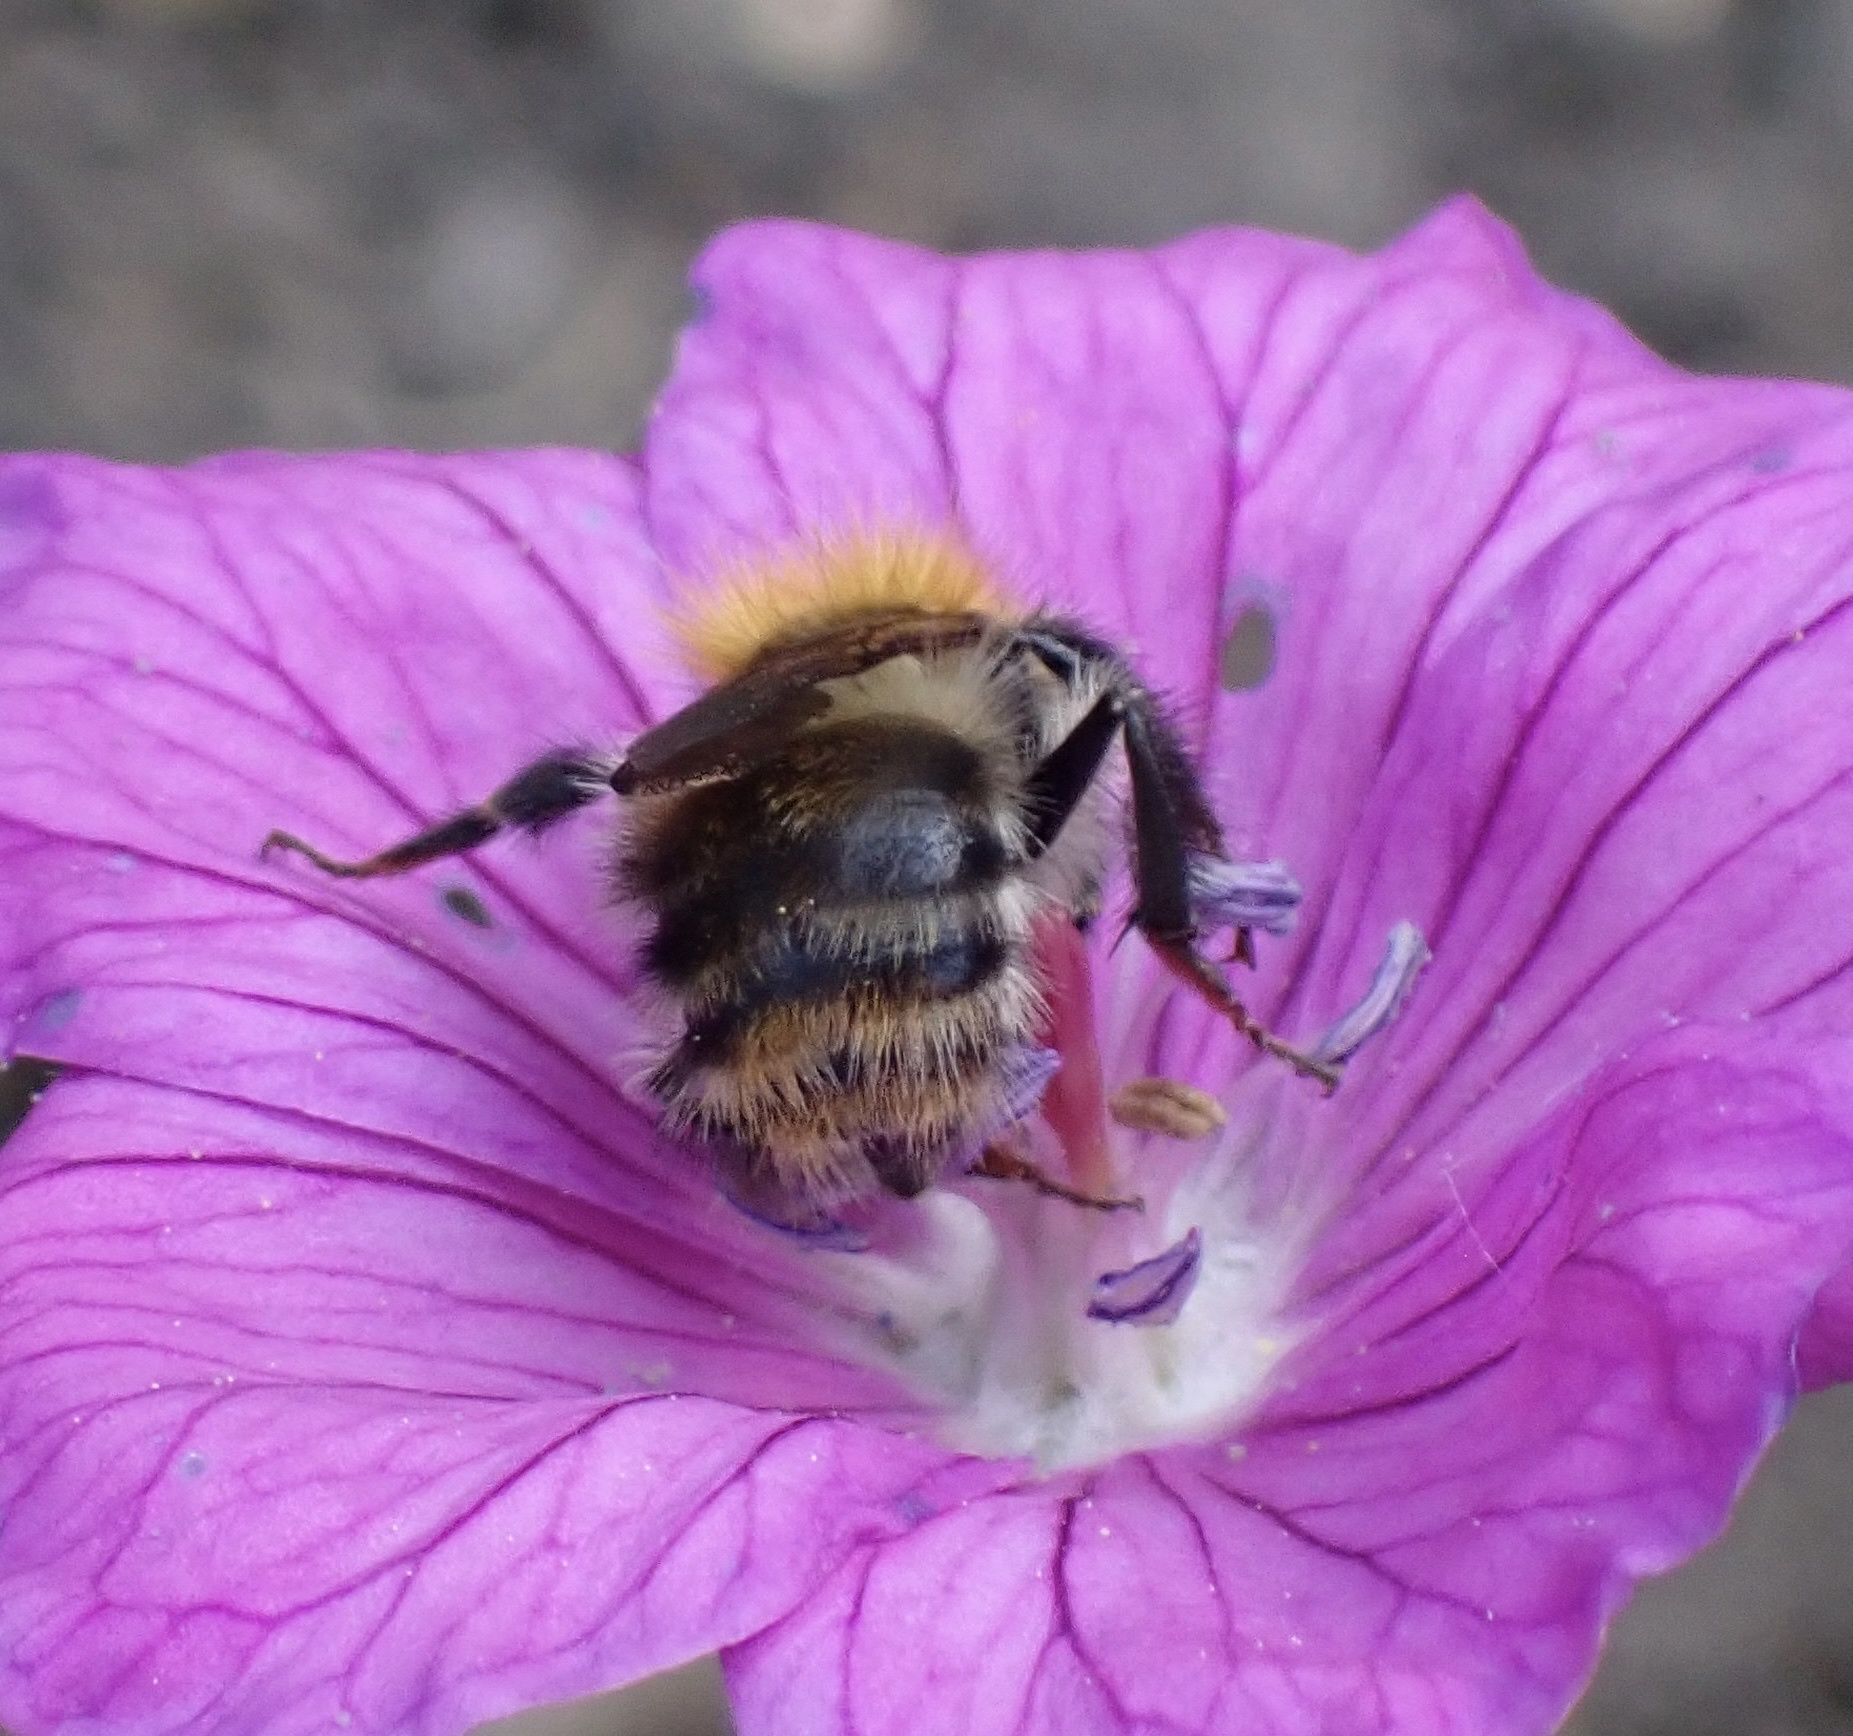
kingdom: Animalia
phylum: Arthropoda
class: Insecta
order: Hymenoptera
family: Apidae
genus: Bombus
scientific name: Bombus pascuorum
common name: Common carder bee
